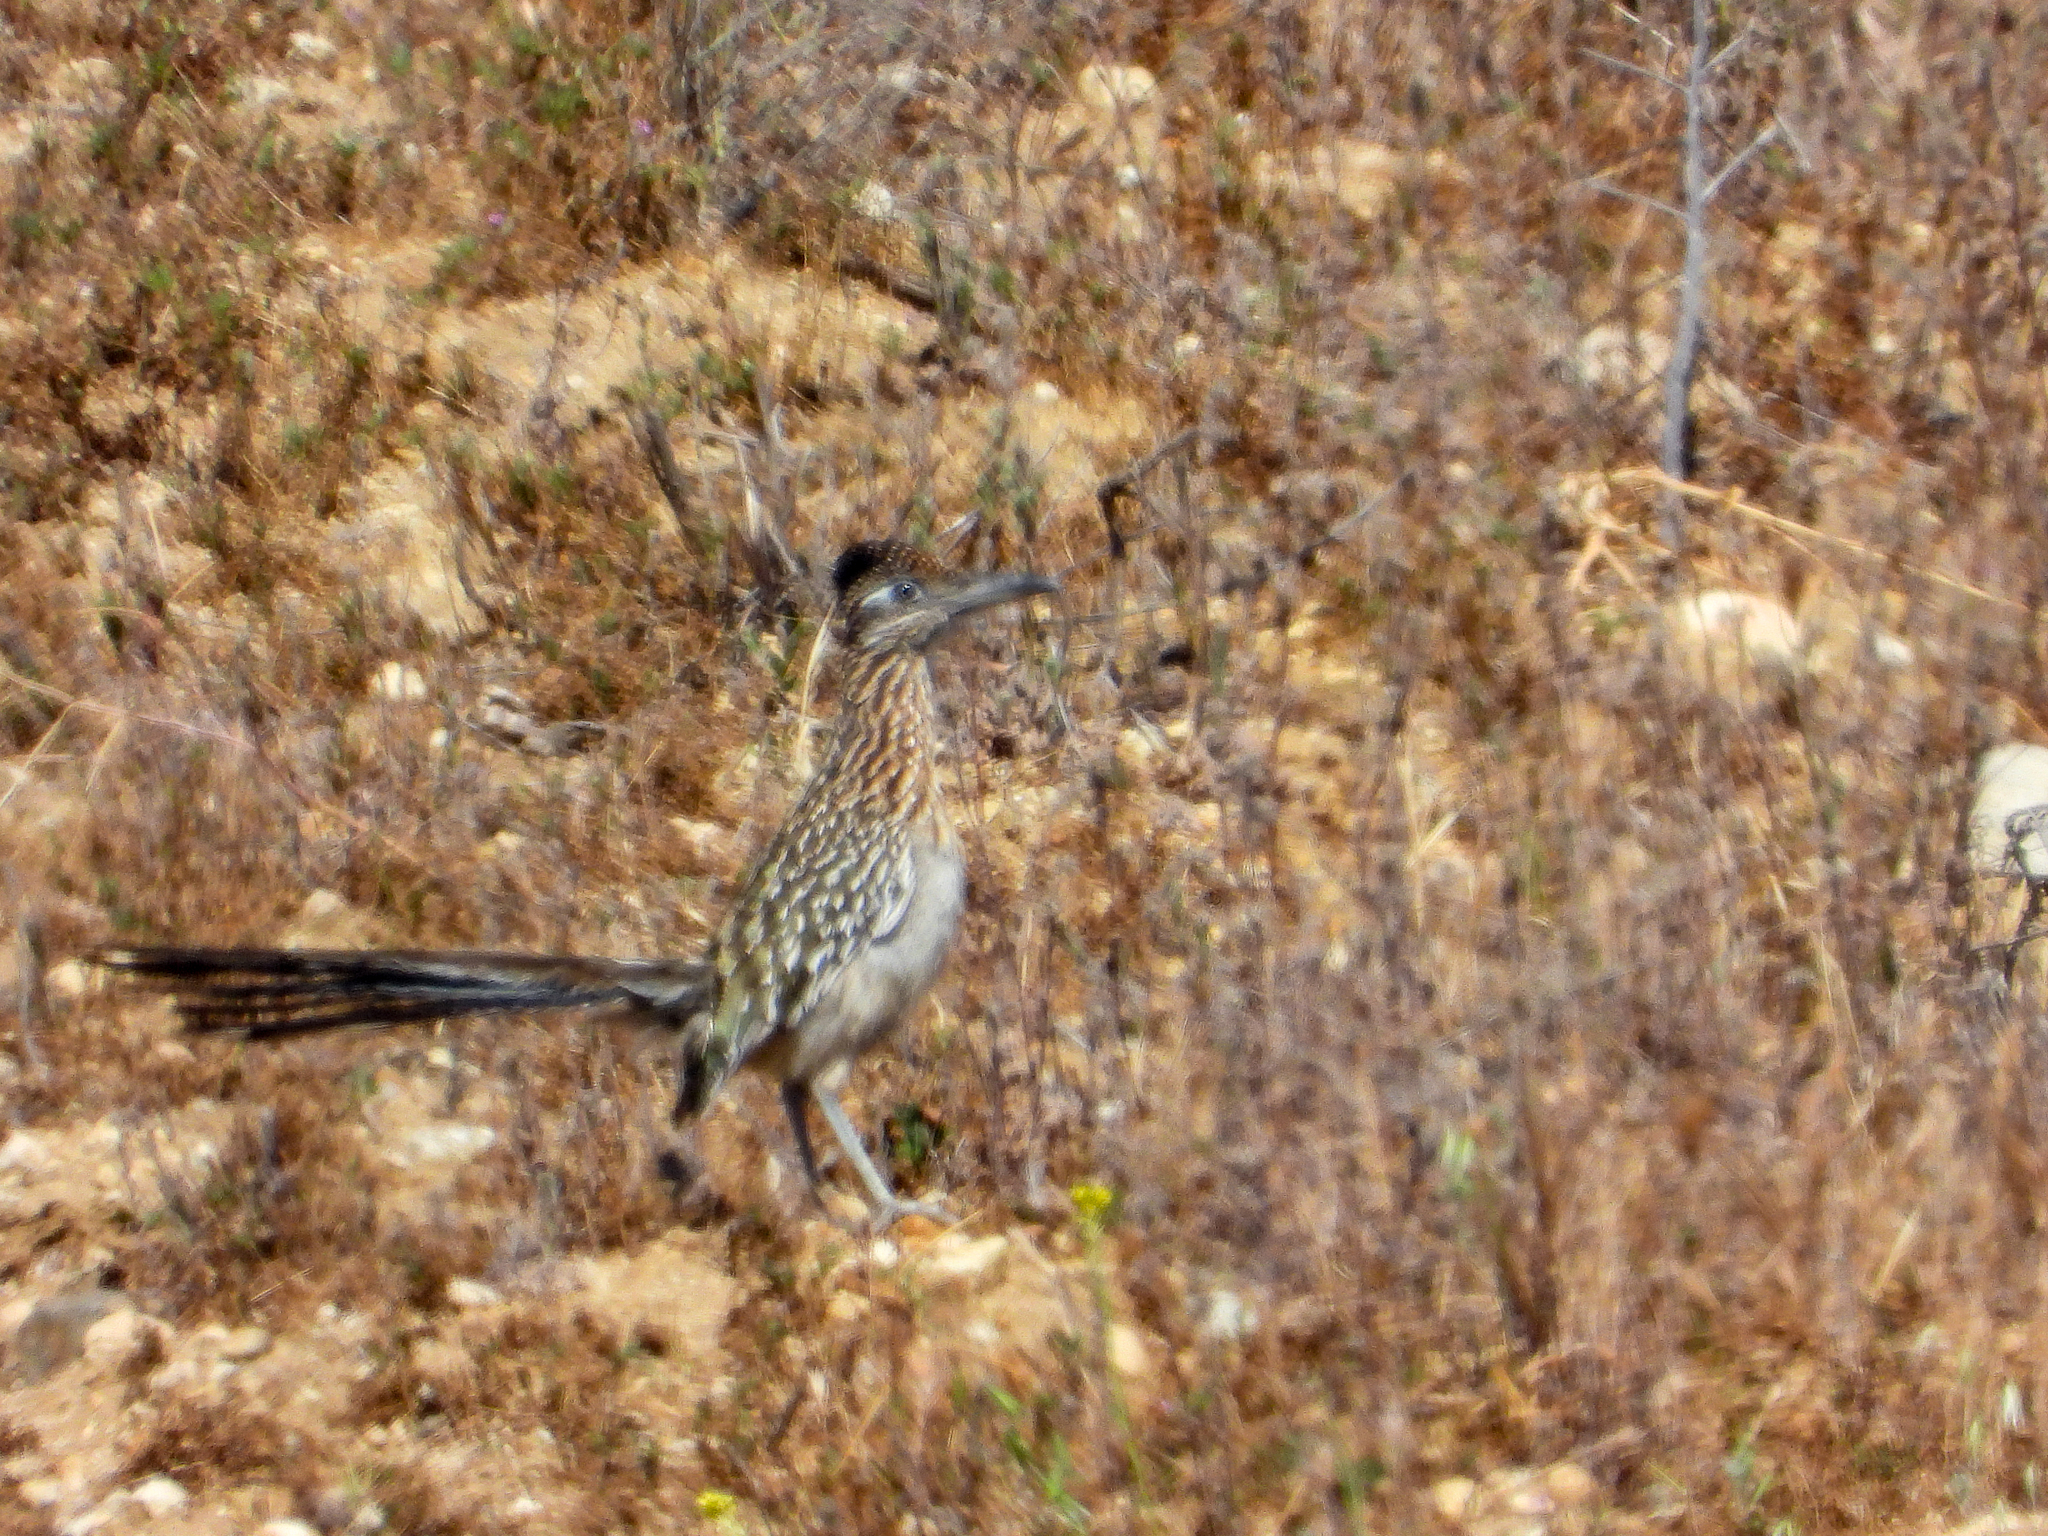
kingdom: Animalia
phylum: Chordata
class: Aves
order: Cuculiformes
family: Cuculidae
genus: Geococcyx
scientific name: Geococcyx californianus
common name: Greater roadrunner
